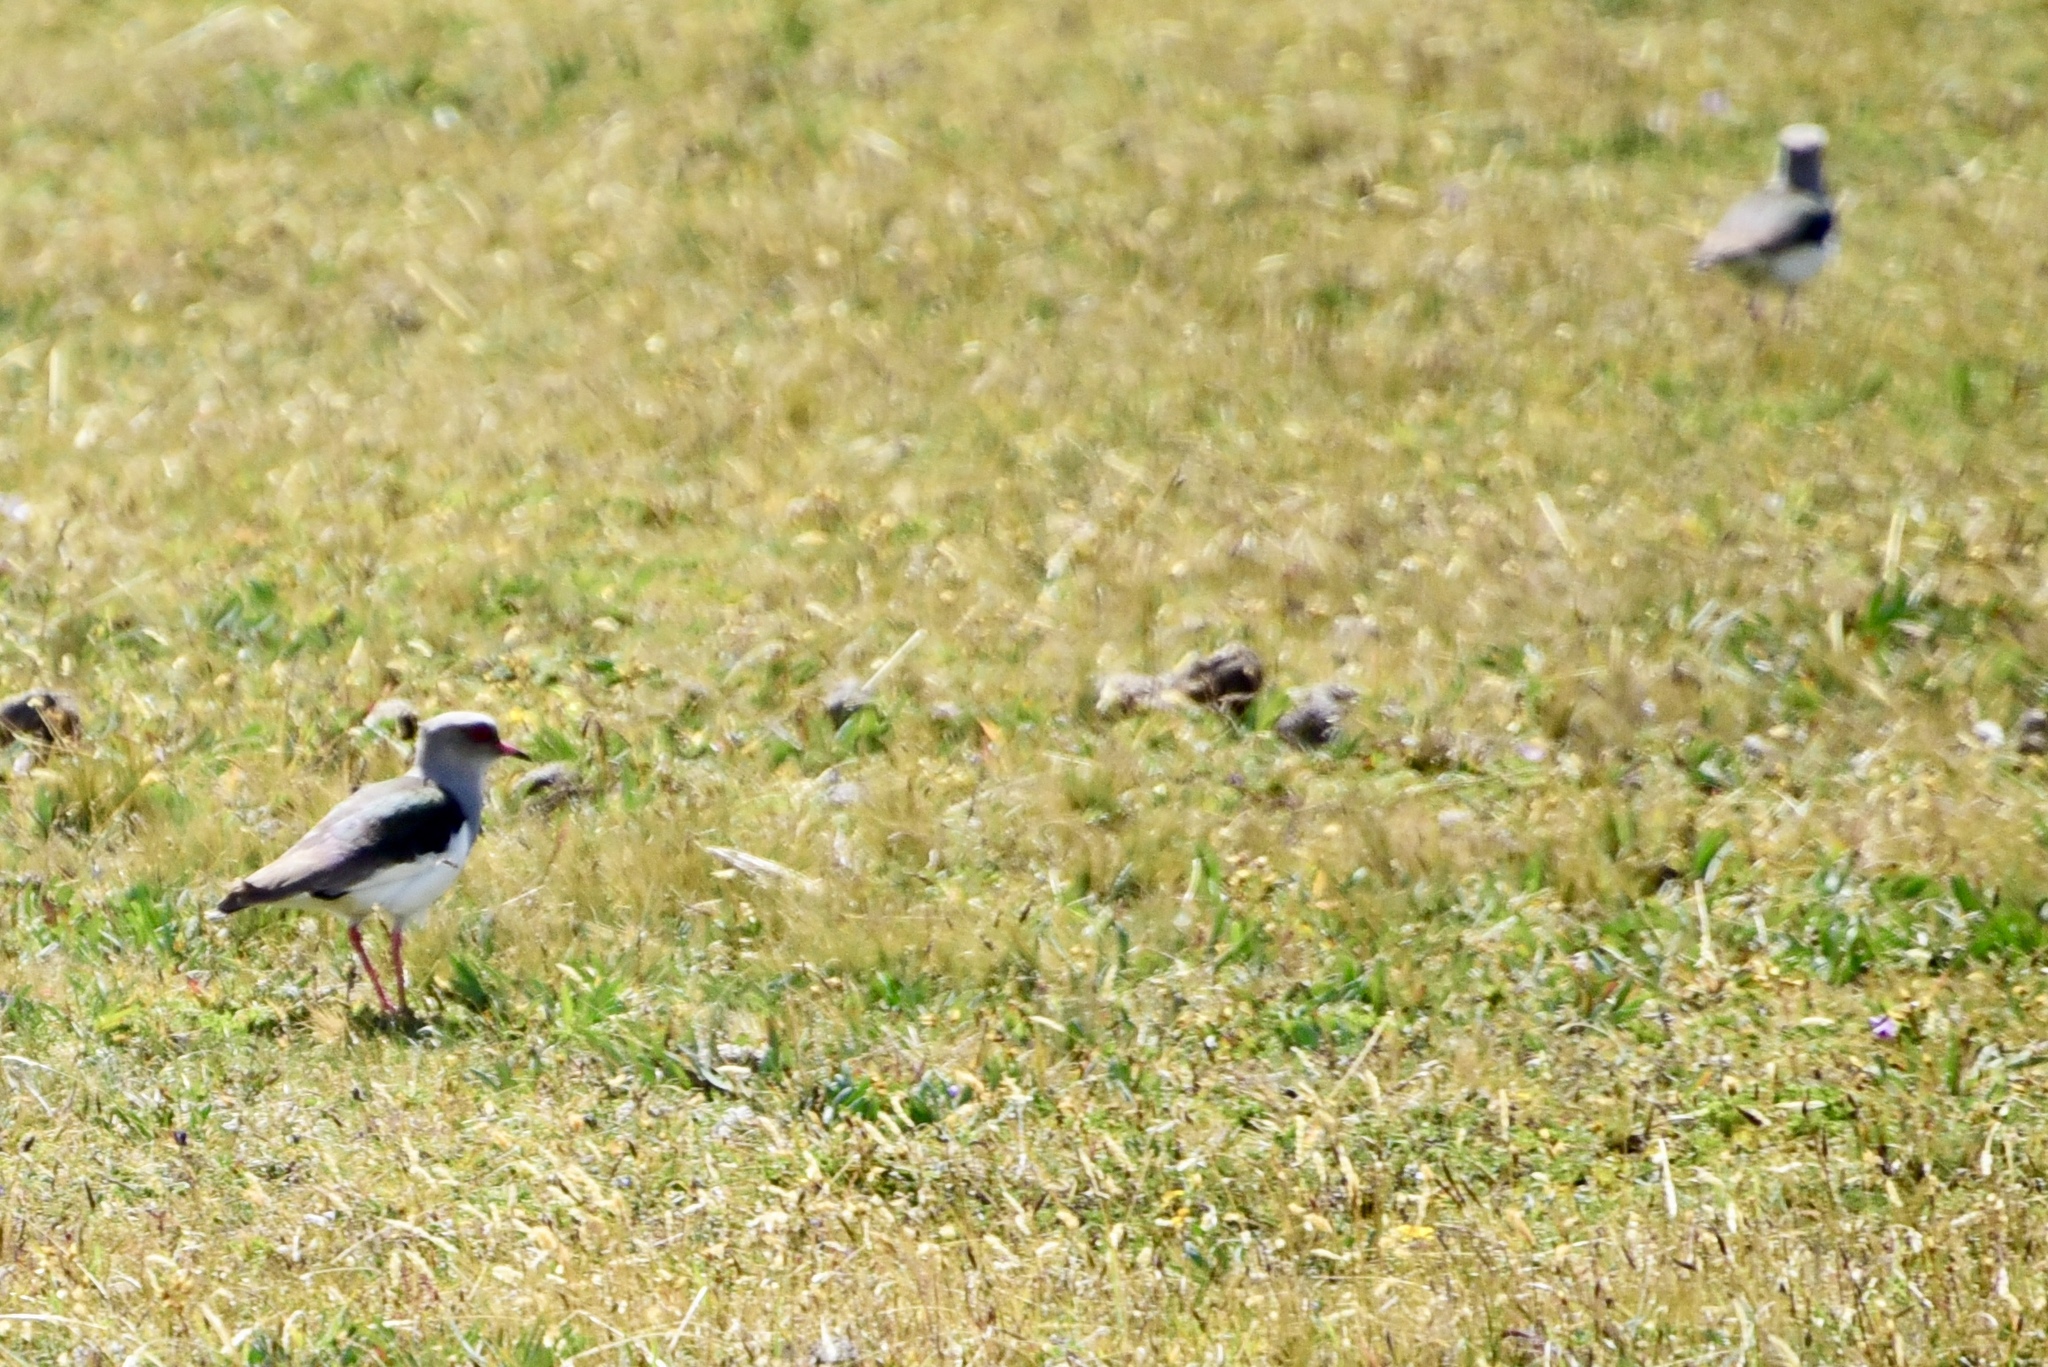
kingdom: Animalia
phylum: Chordata
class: Aves
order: Charadriiformes
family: Charadriidae
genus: Vanellus
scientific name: Vanellus resplendens
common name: Andean lapwing
